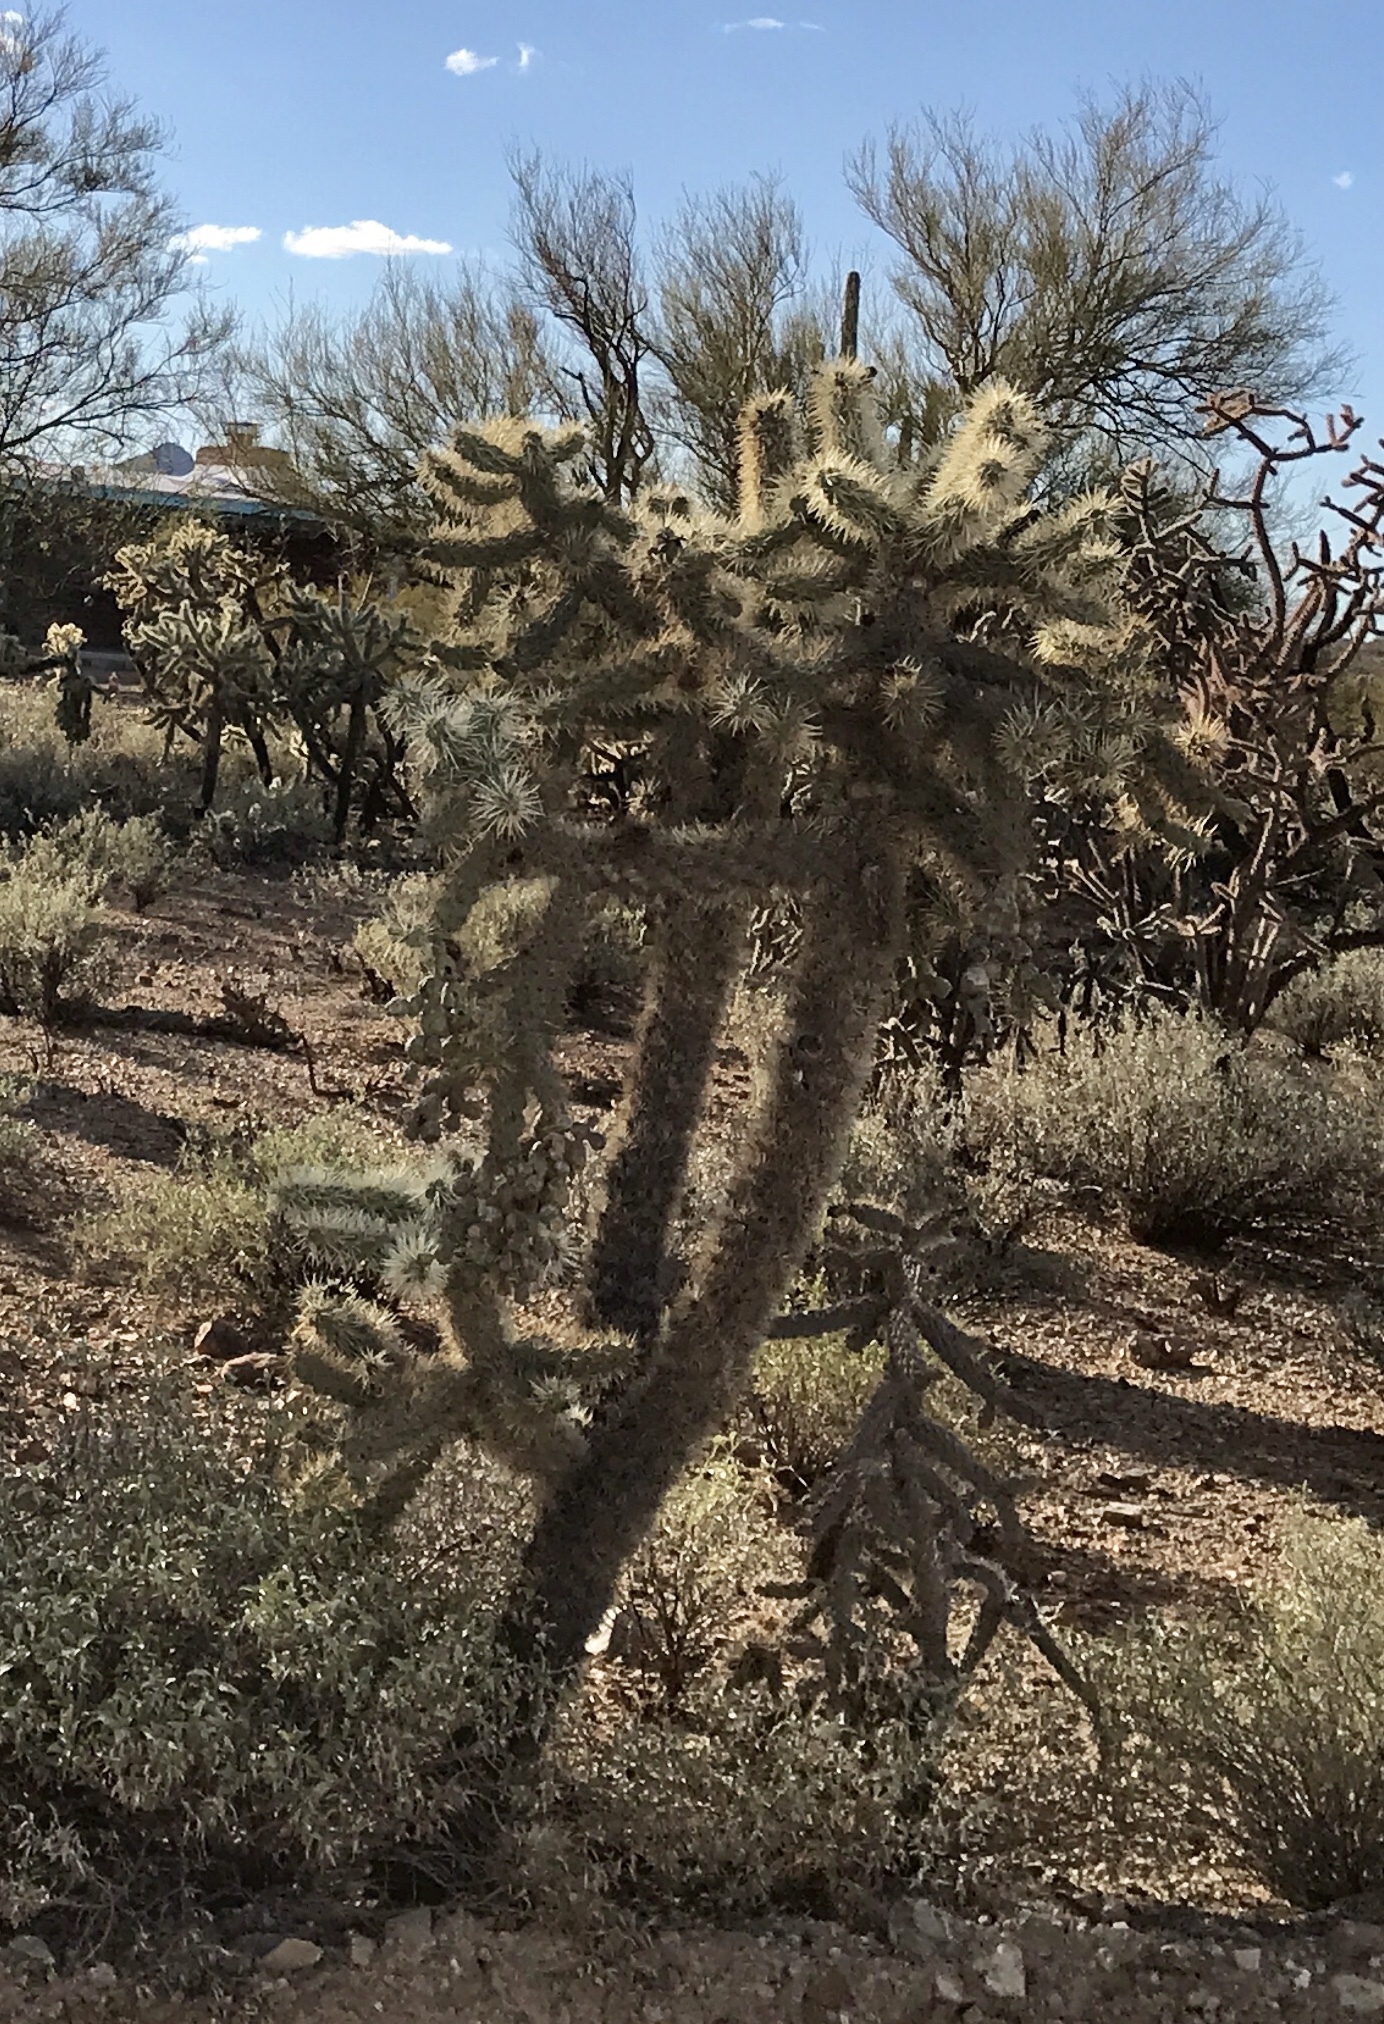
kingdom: Plantae
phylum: Tracheophyta
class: Magnoliopsida
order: Caryophyllales
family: Cactaceae
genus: Cylindropuntia
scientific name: Cylindropuntia fulgida
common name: Jumping cholla
